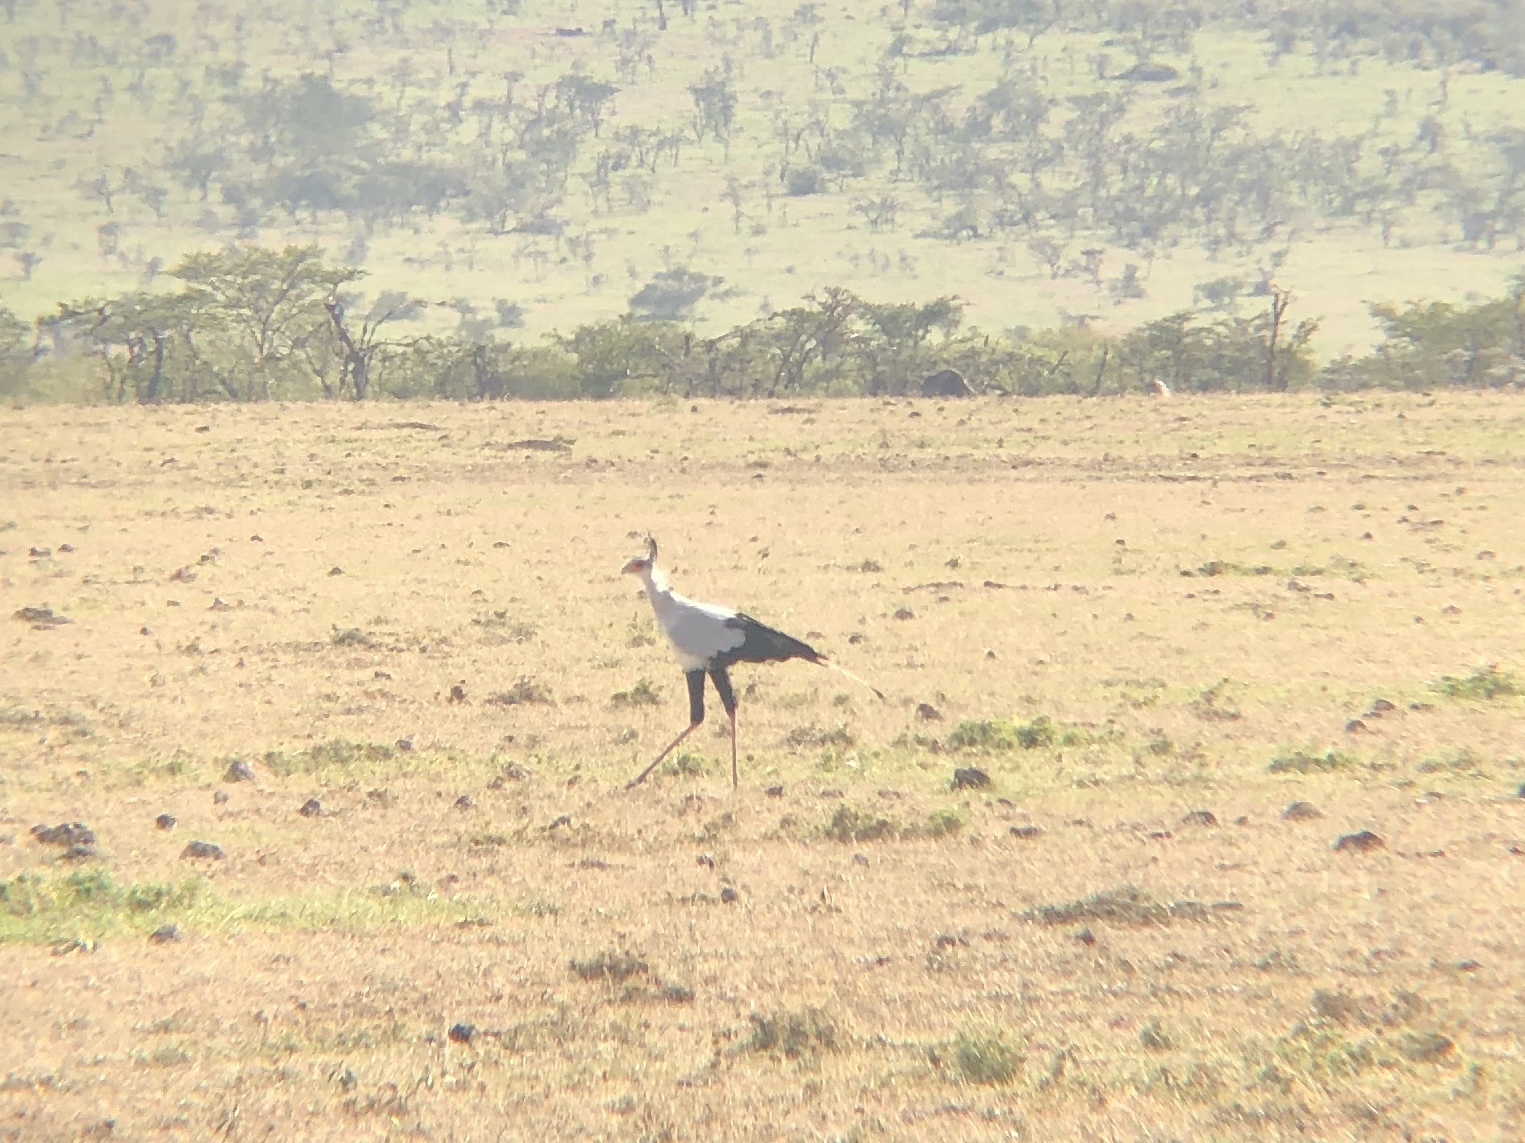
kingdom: Animalia
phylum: Chordata
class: Aves
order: Accipitriformes
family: Sagittariidae
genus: Sagittarius
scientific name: Sagittarius serpentarius
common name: Secretarybird
